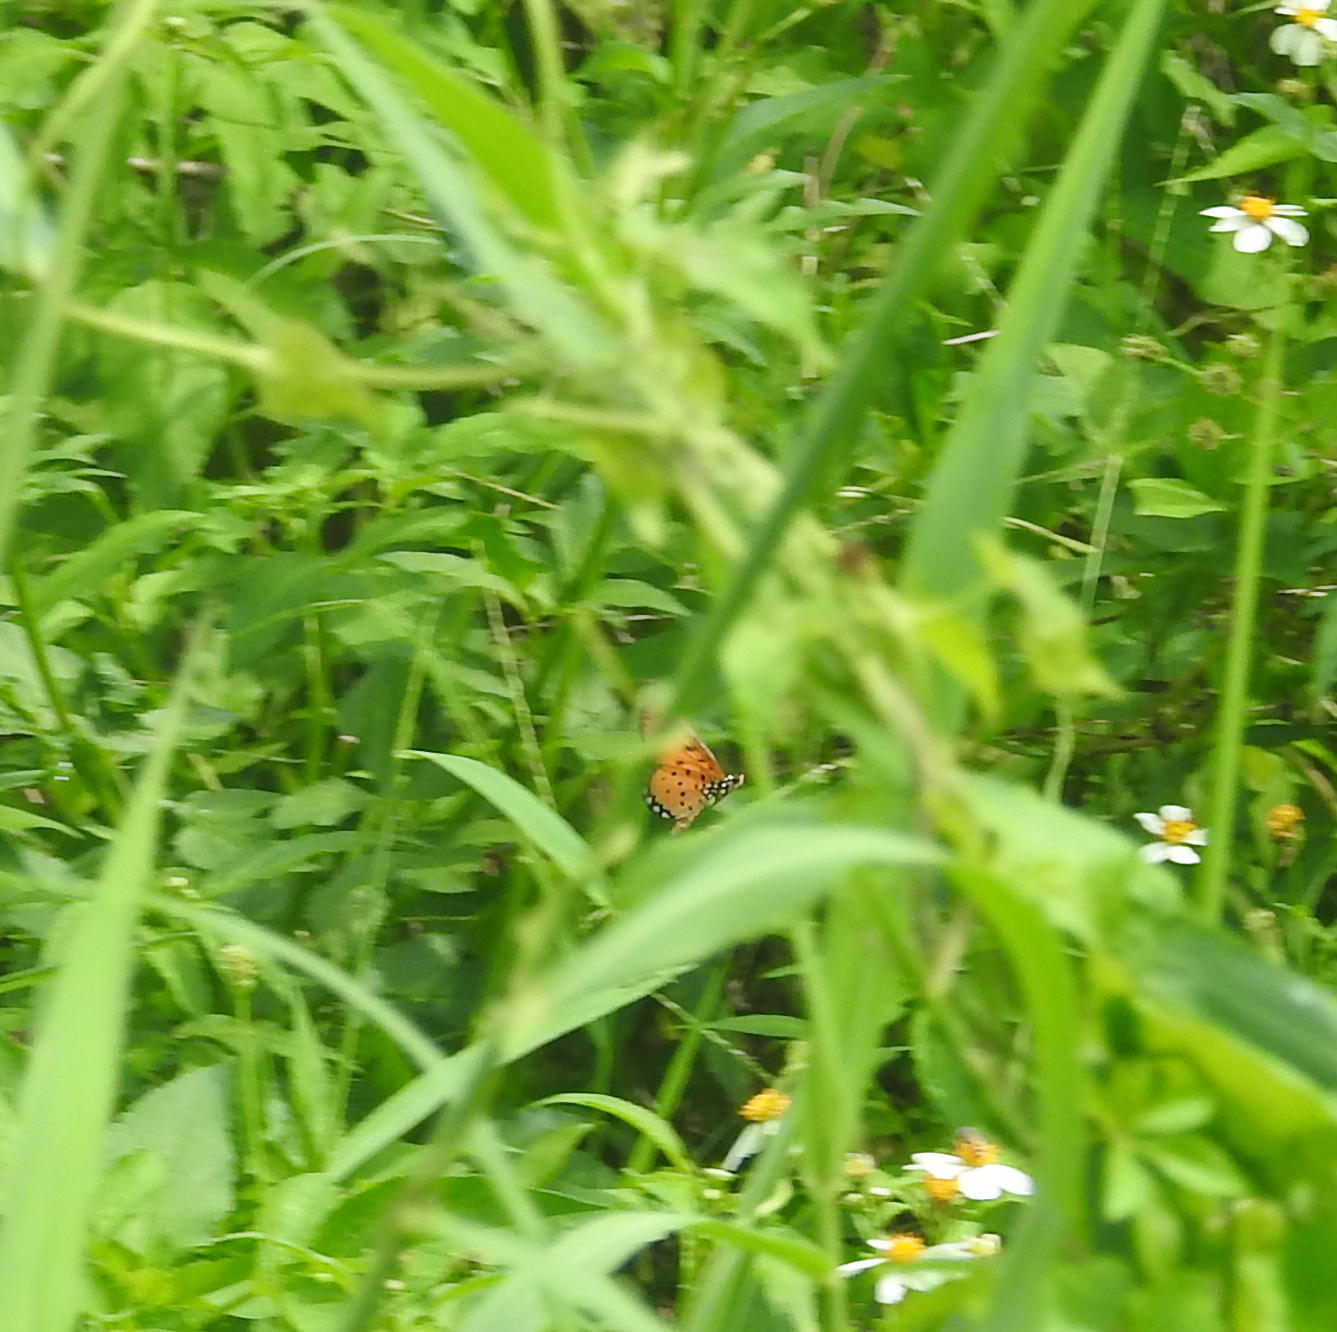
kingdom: Animalia
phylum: Arthropoda
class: Insecta
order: Lepidoptera
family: Nymphalidae
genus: Acraea
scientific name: Acraea terpsicore
